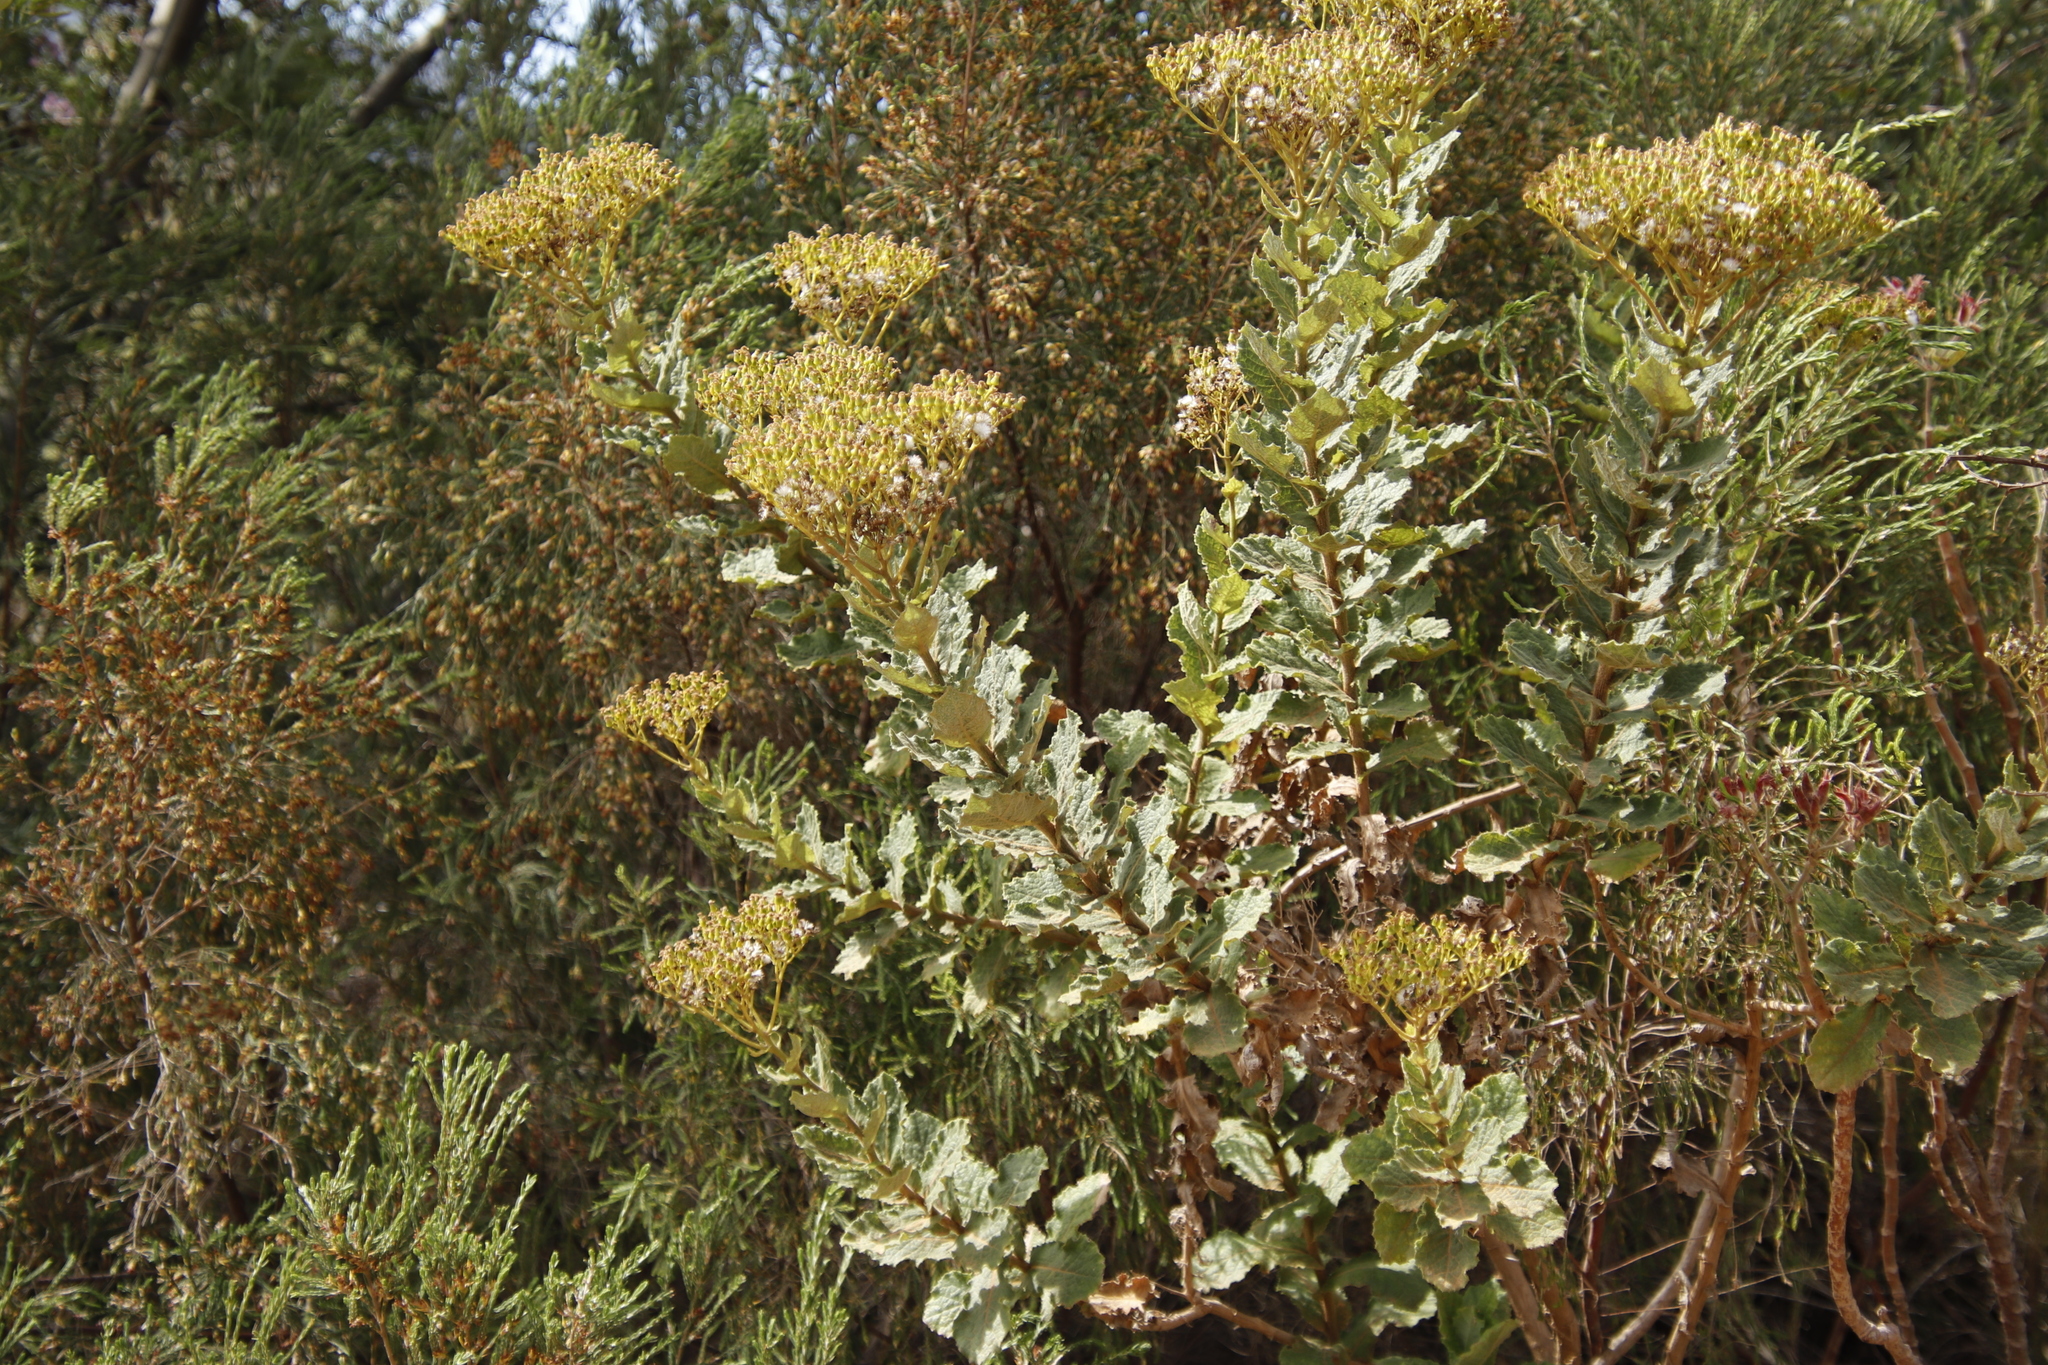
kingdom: Plantae
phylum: Tracheophyta
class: Magnoliopsida
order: Asterales
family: Asteraceae
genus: Senecio
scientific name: Senecio rigidus
